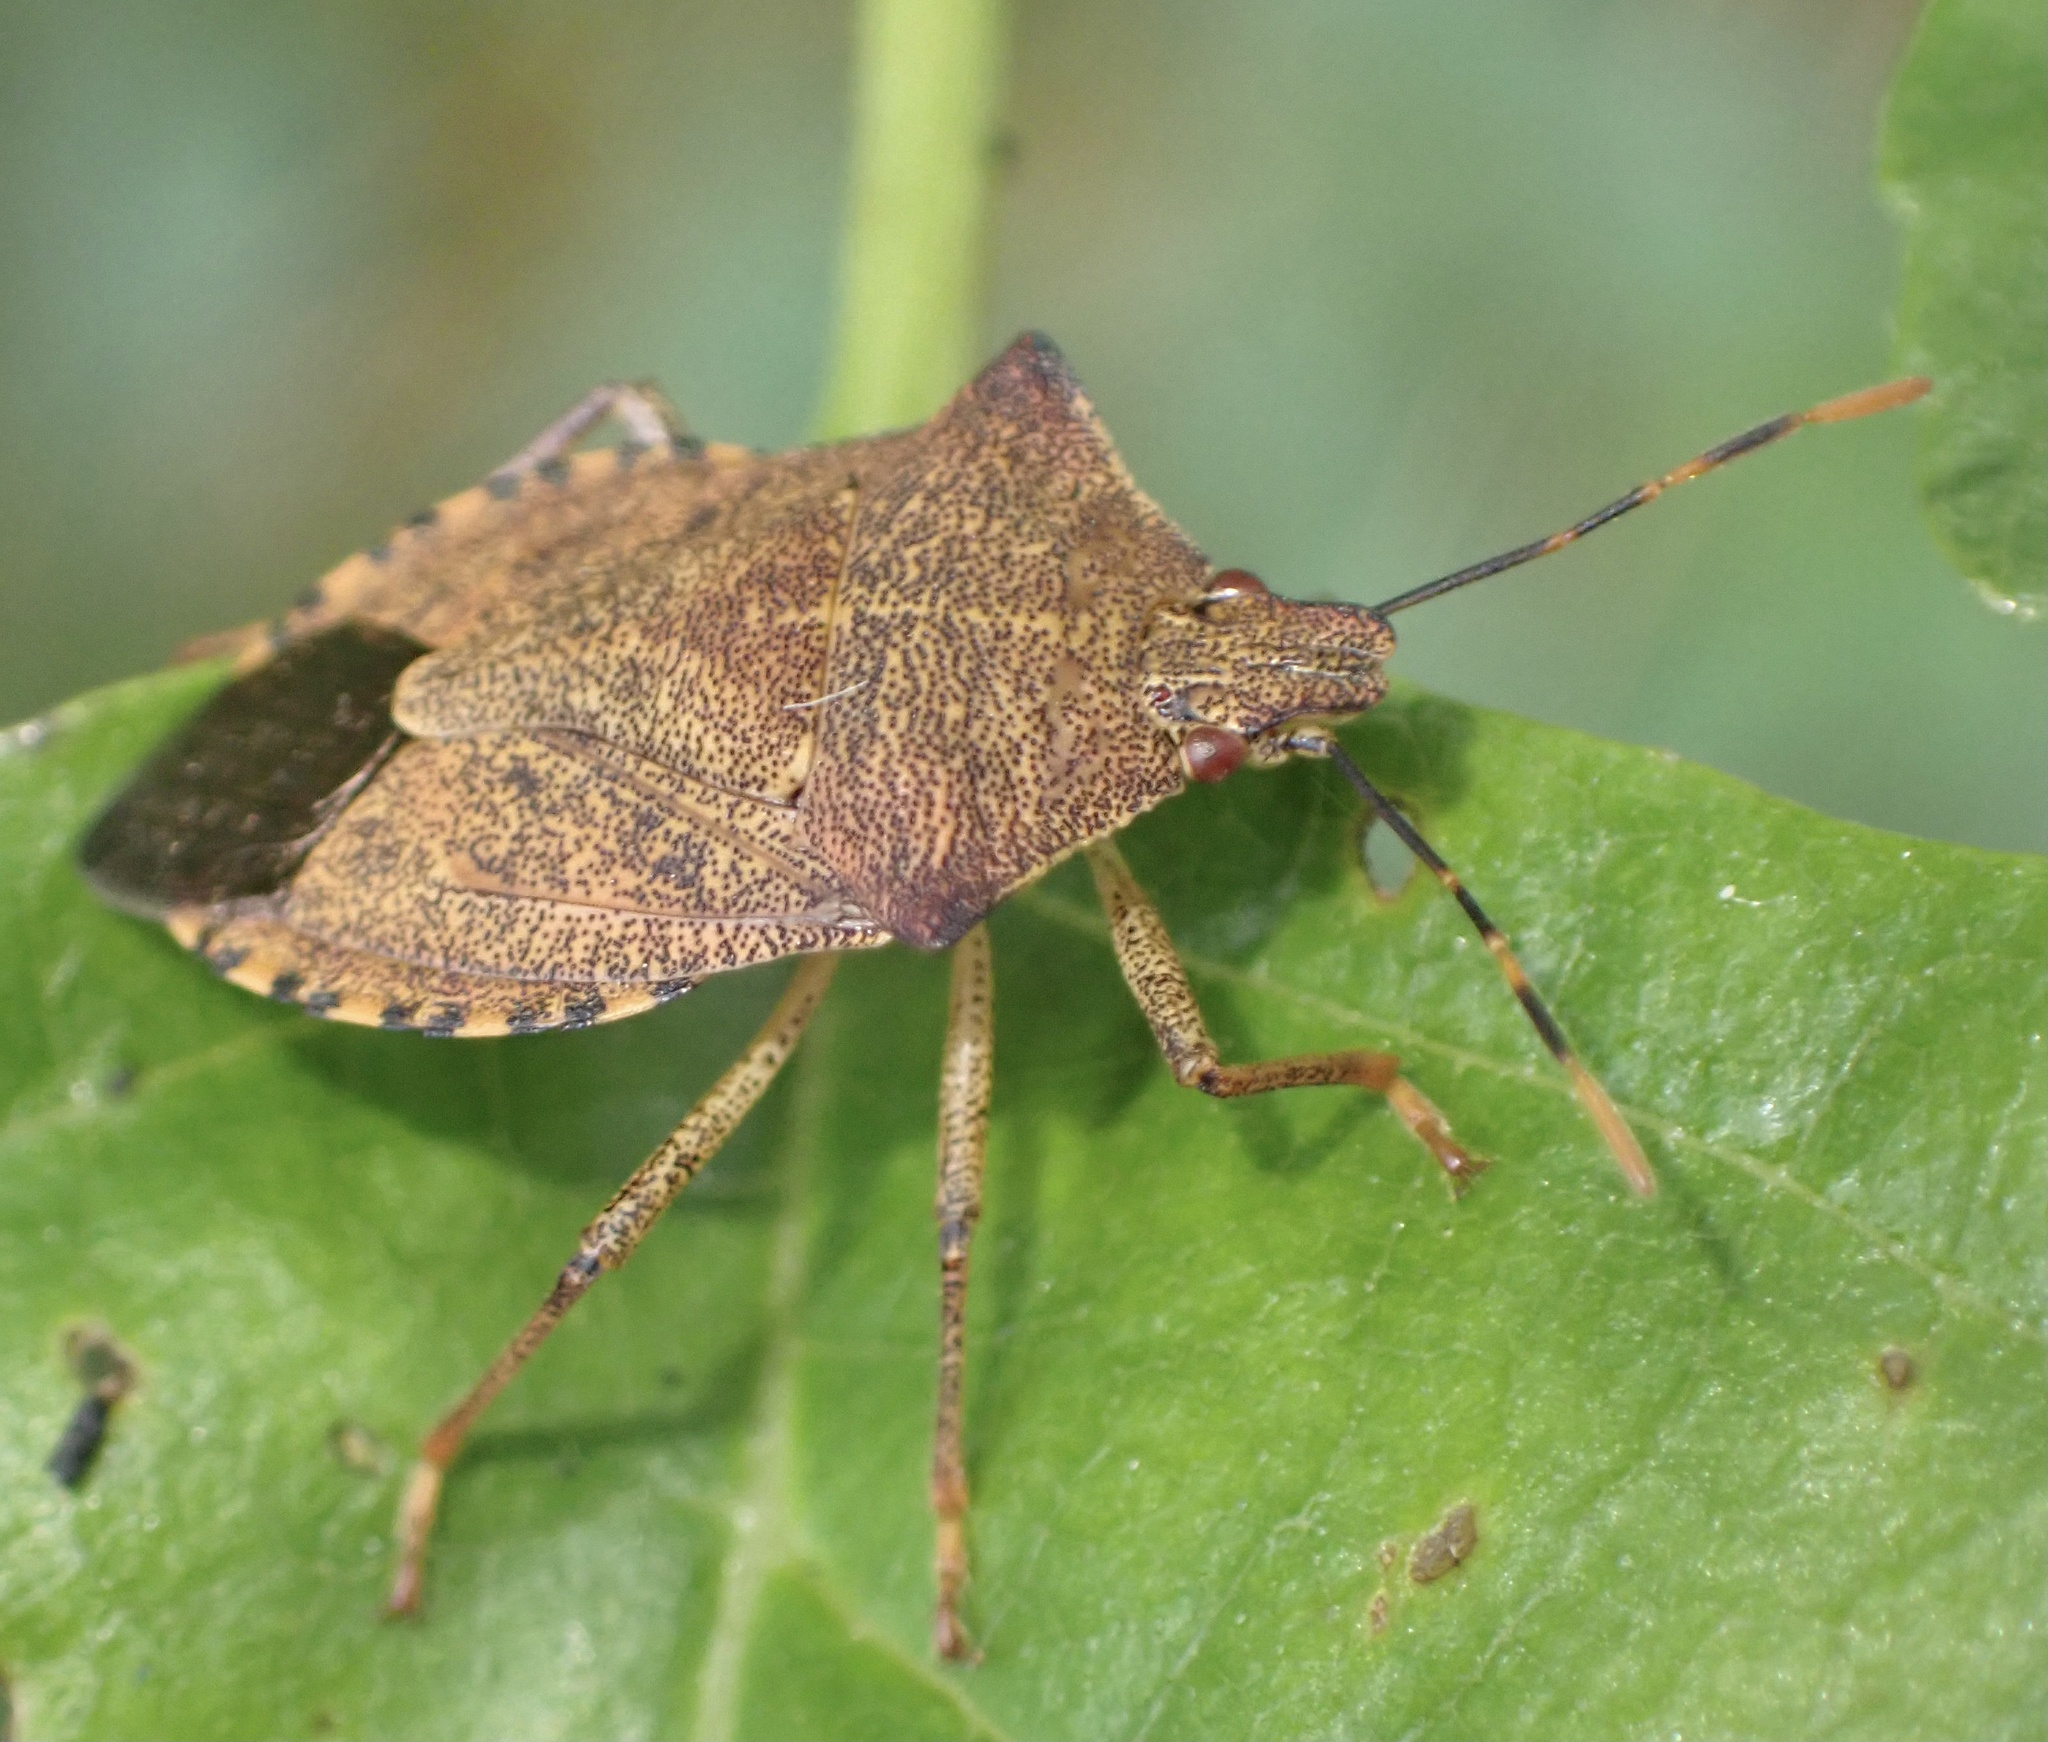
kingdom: Animalia
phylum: Arthropoda
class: Insecta
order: Hemiptera
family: Pentatomidae
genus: Arma
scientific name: Arma custos
